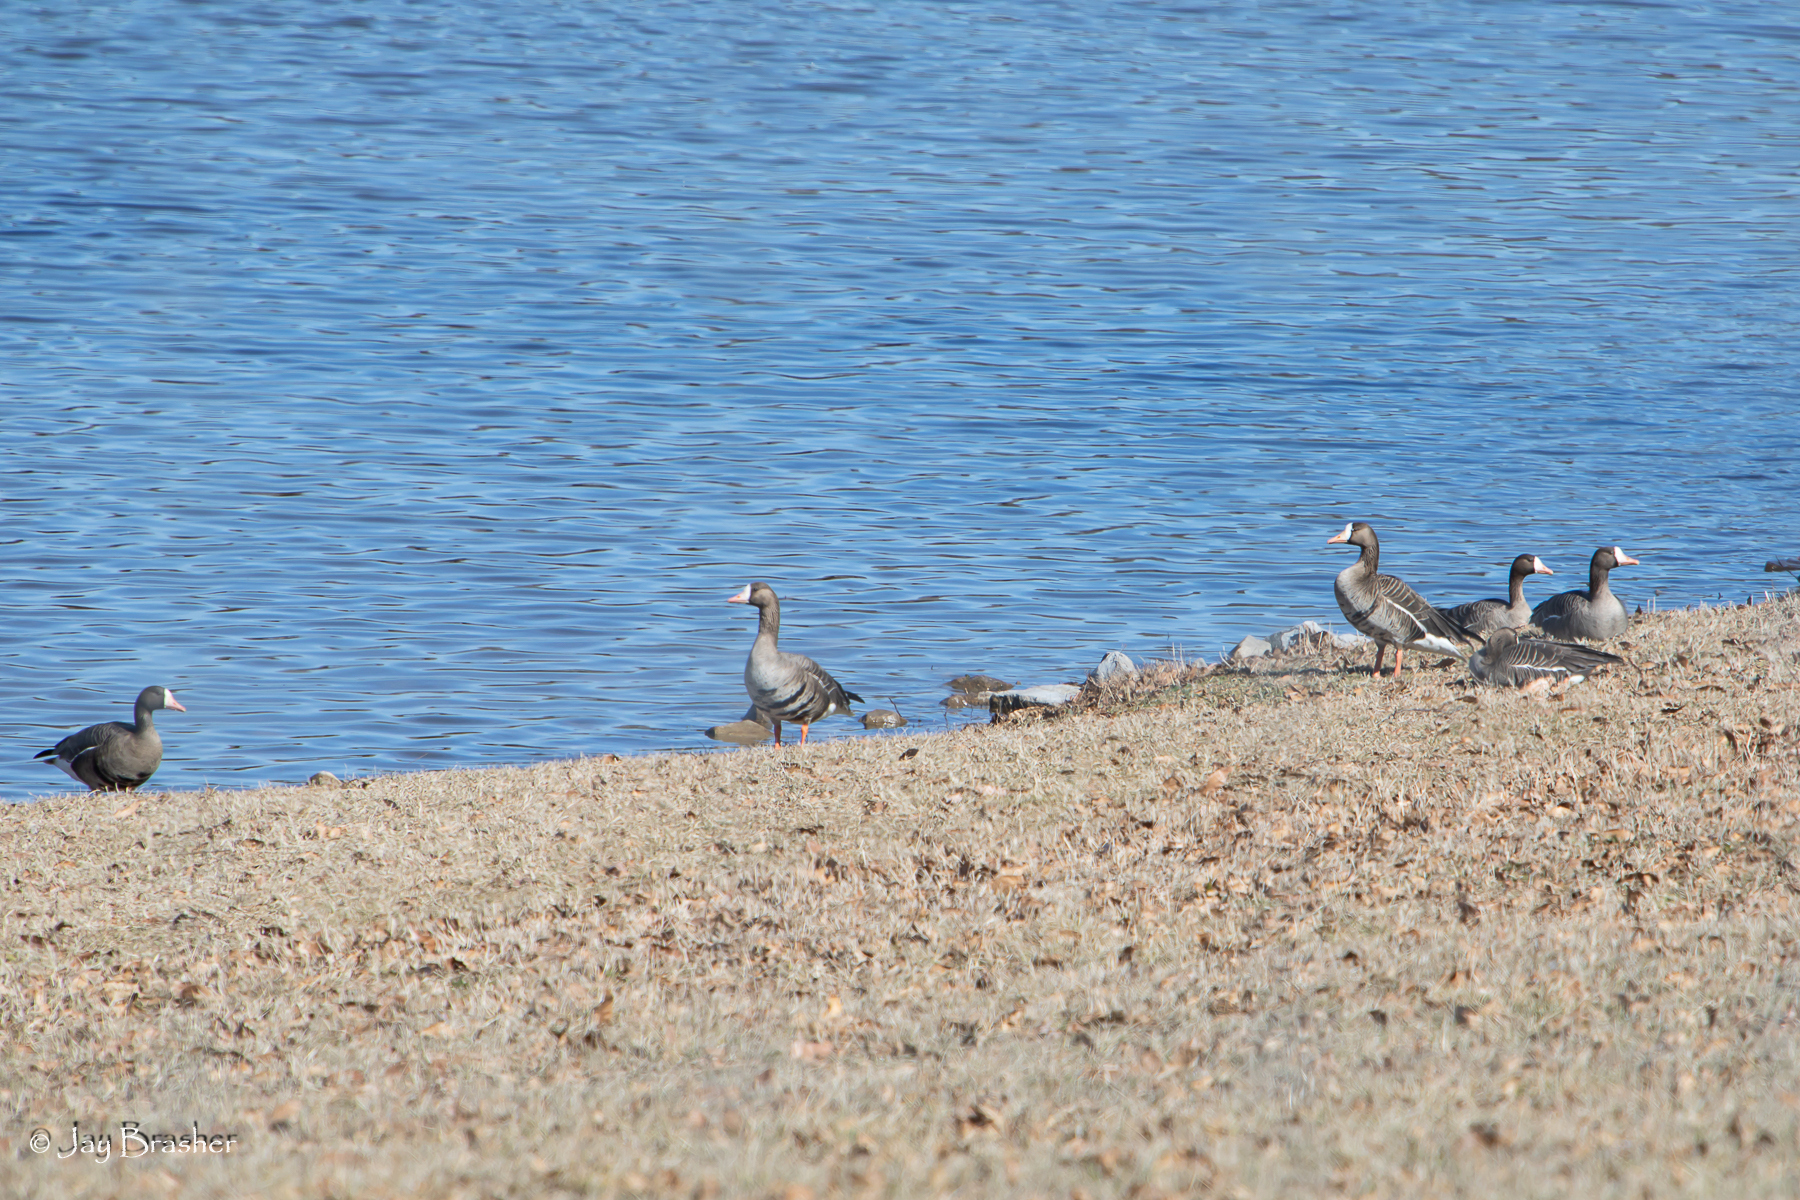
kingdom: Animalia
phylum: Chordata
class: Aves
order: Anseriformes
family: Anatidae
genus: Anser
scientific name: Anser albifrons
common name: Greater white-fronted goose
